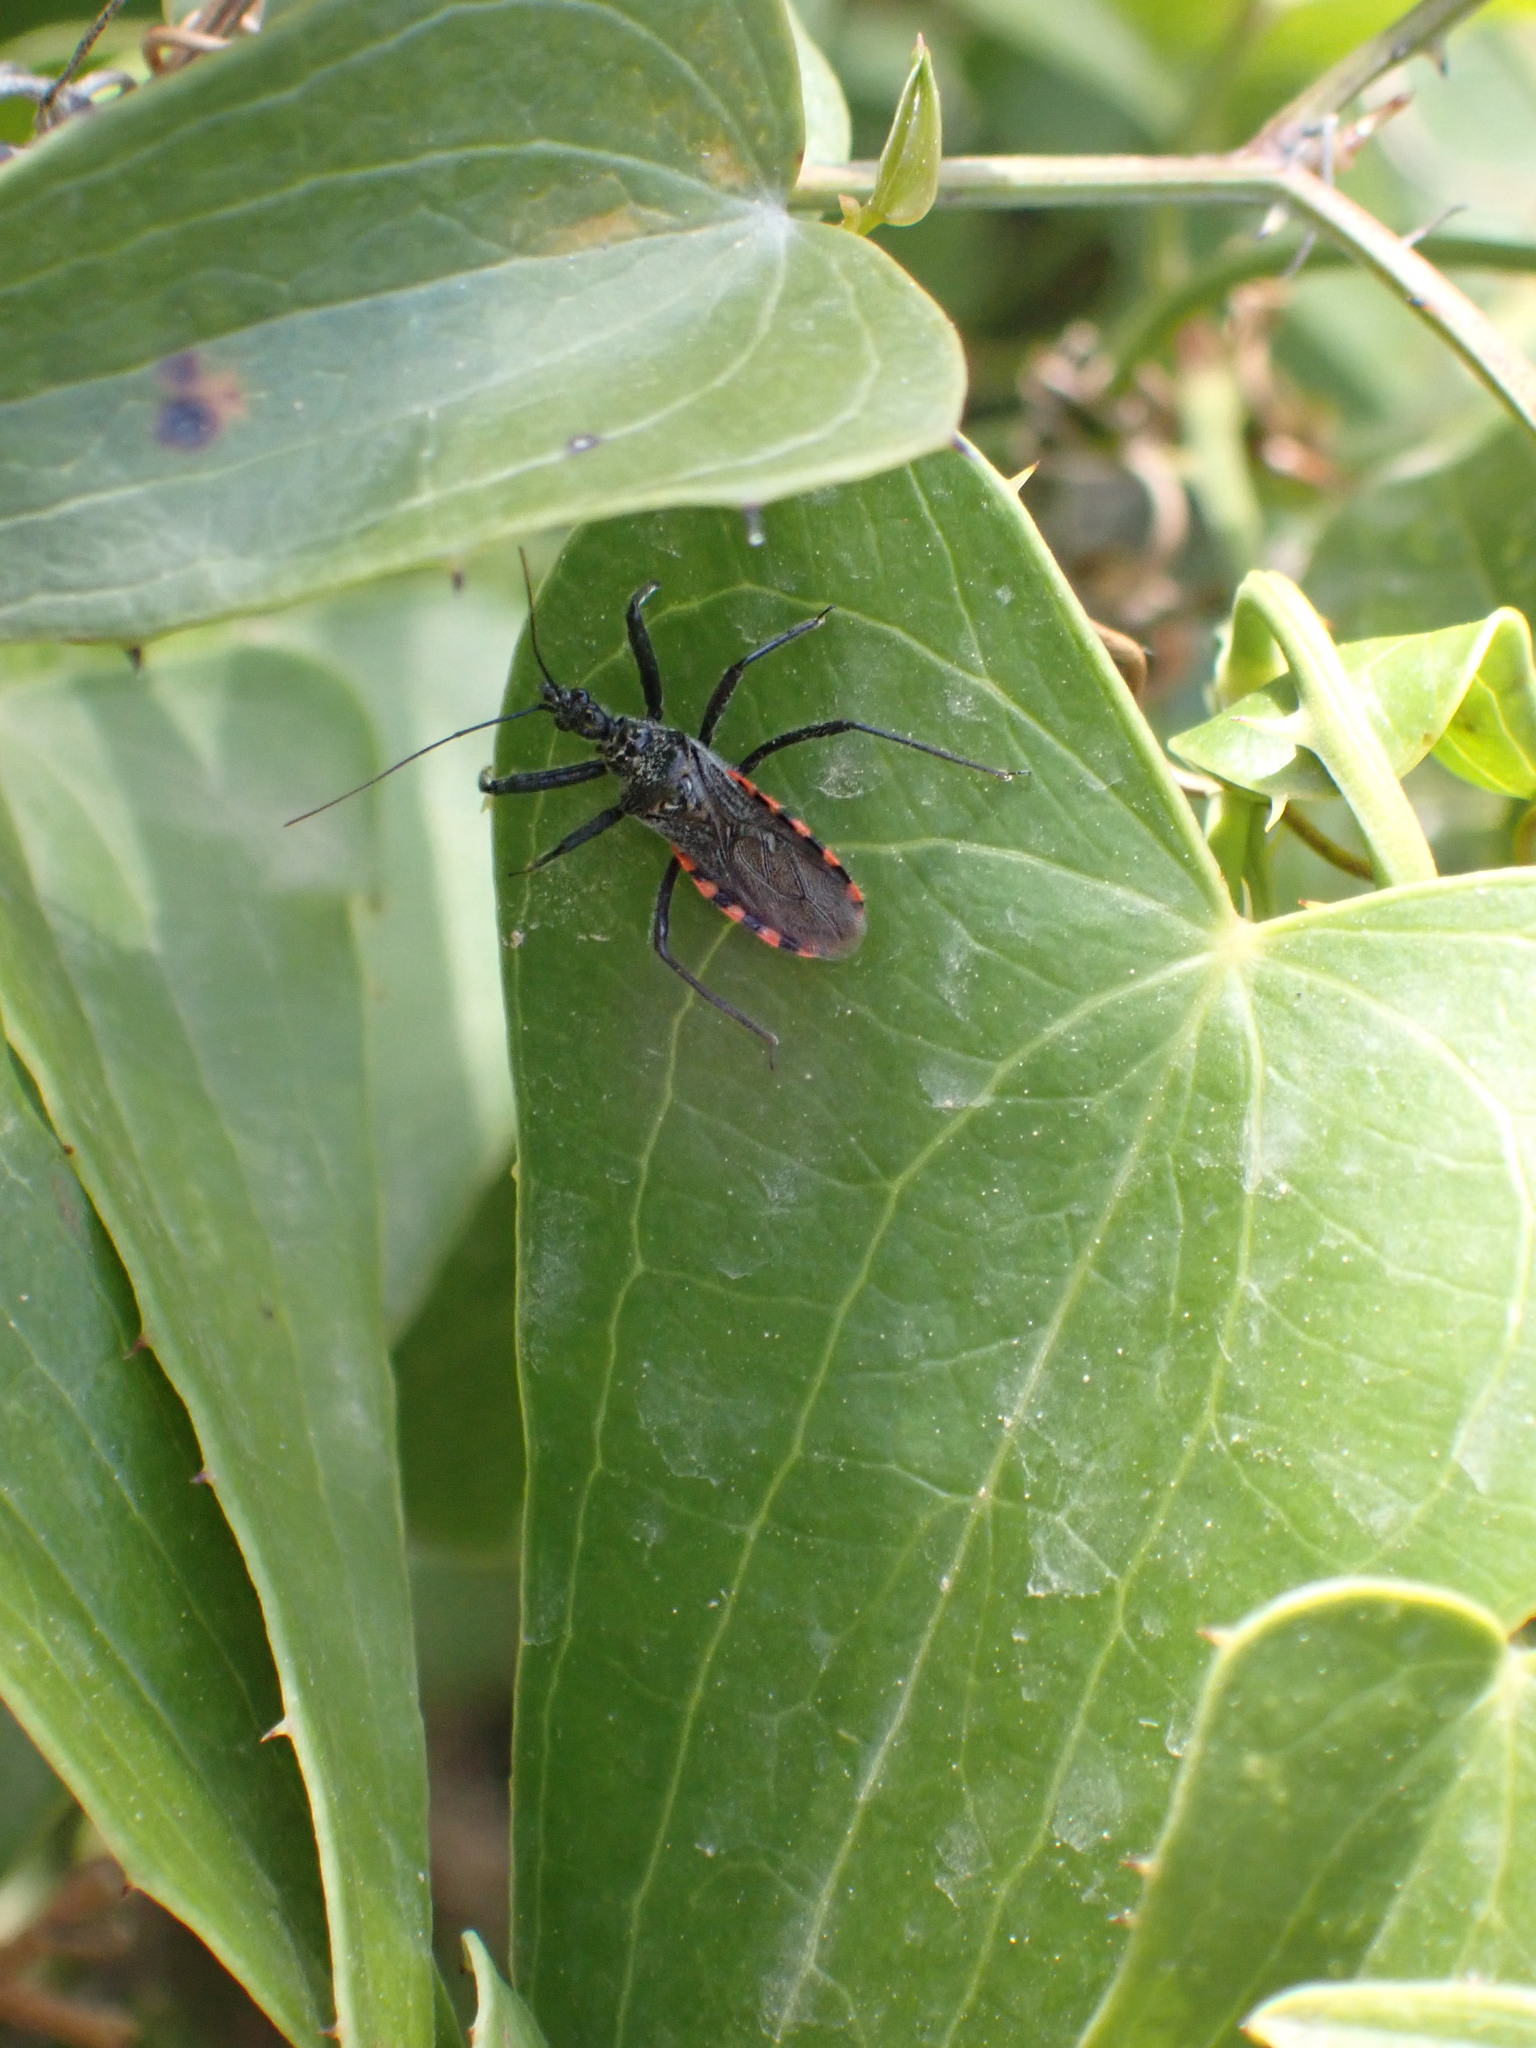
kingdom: Animalia
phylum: Arthropoda
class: Insecta
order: Hemiptera
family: Reduviidae
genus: Sphedanolestes
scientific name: Sphedanolestes sanguineus
